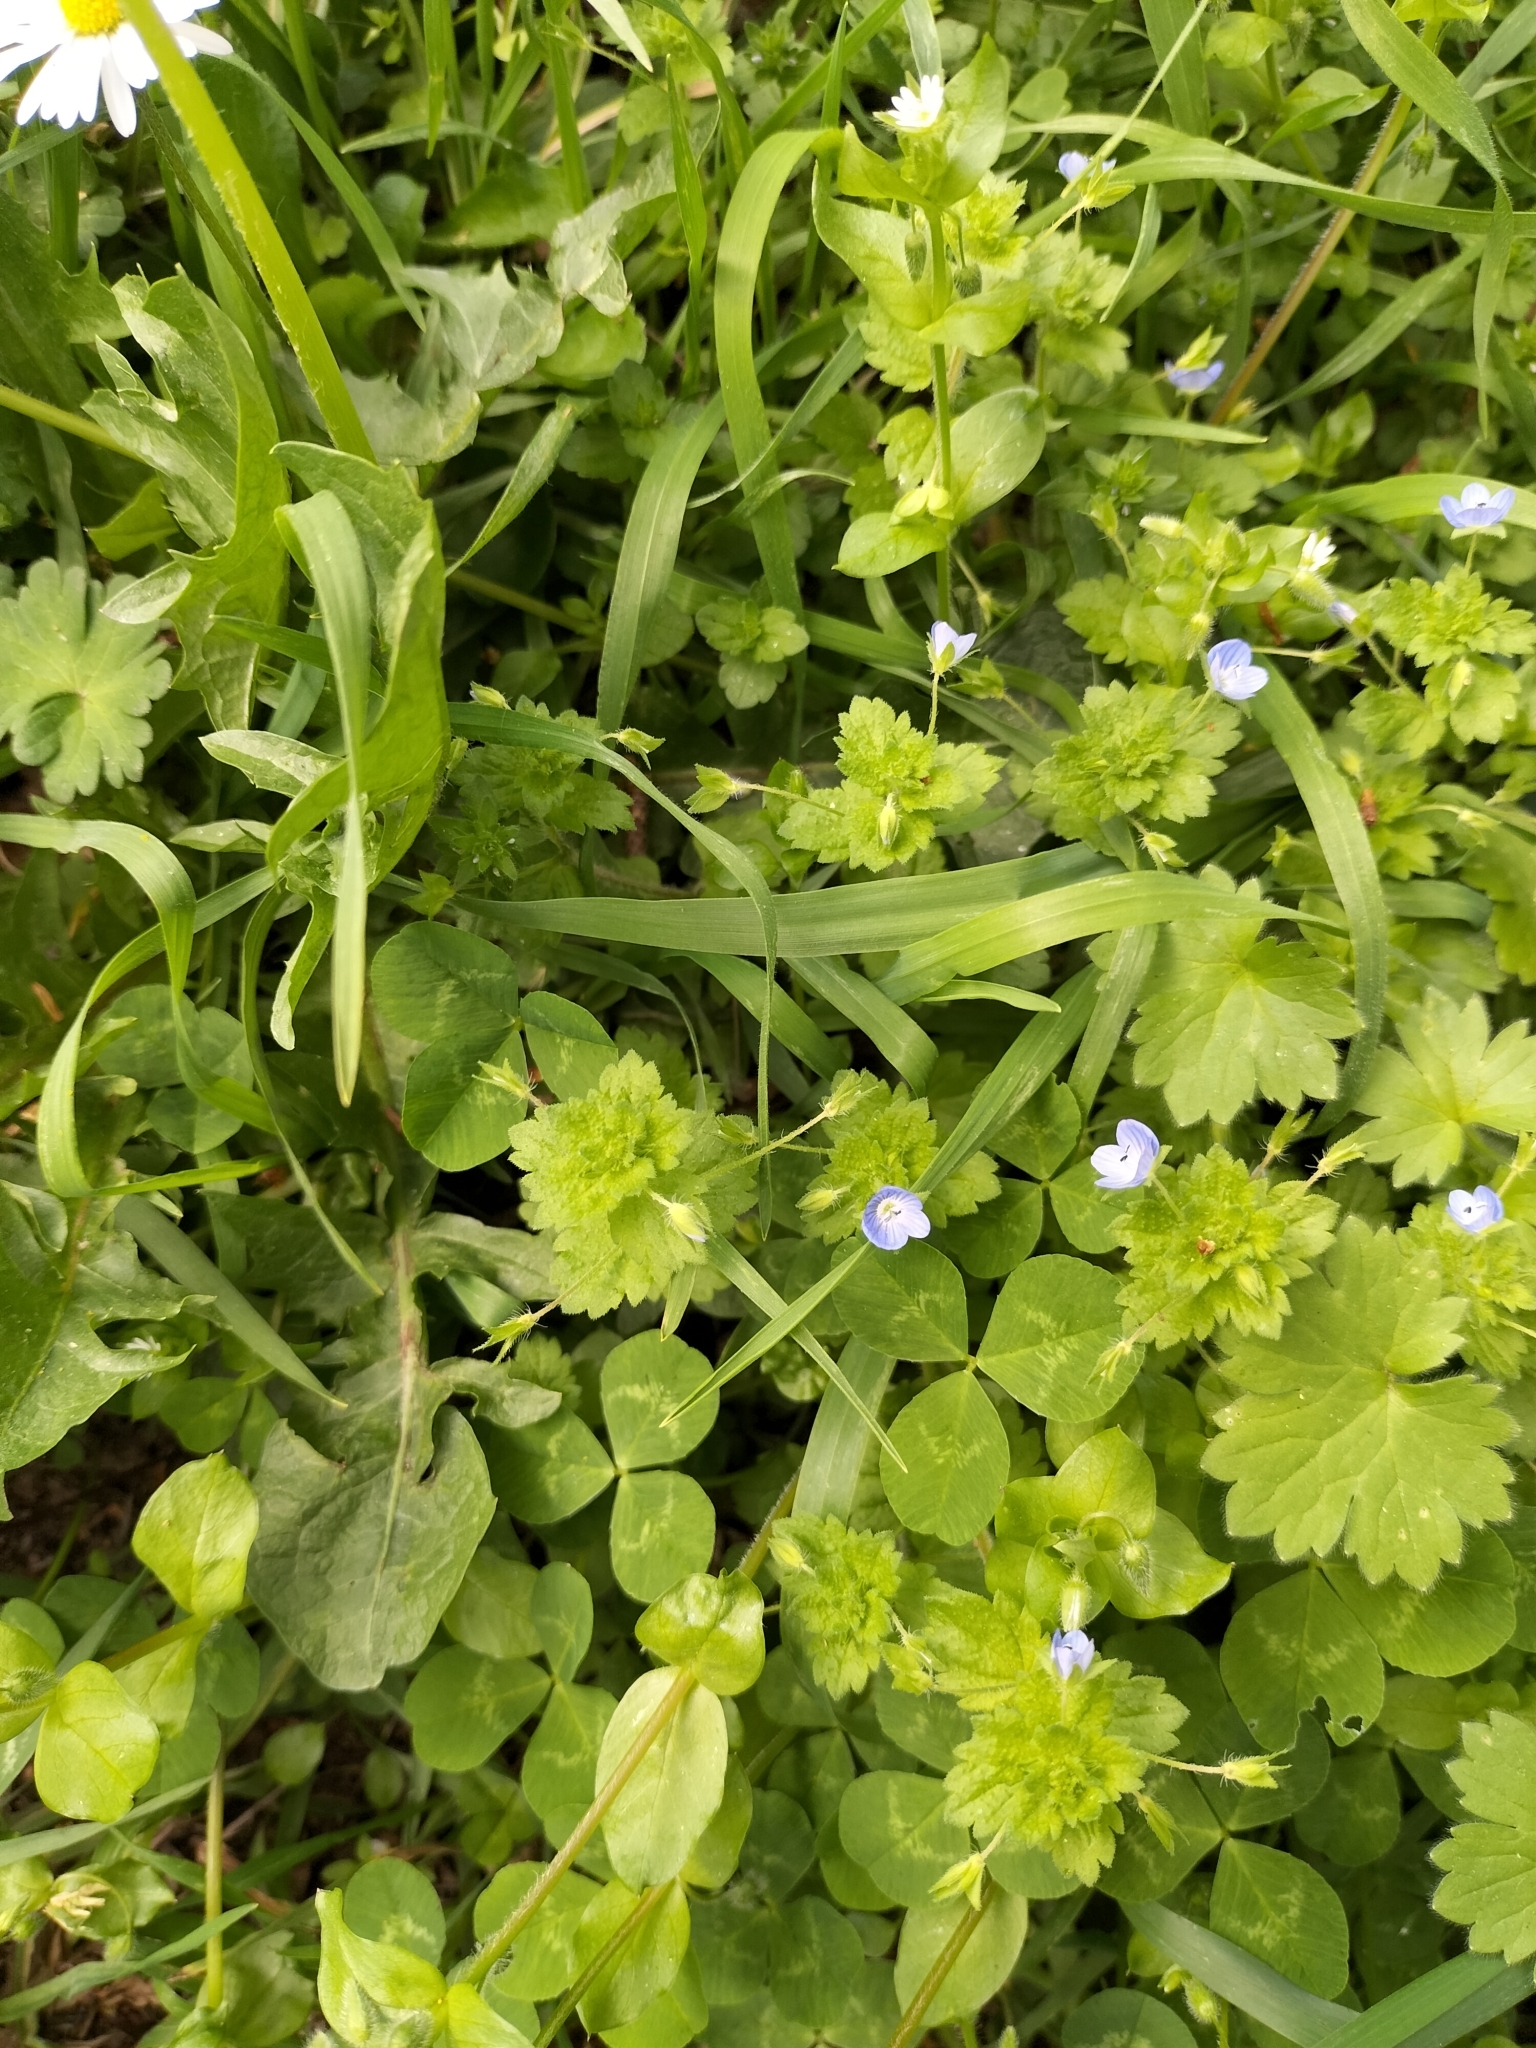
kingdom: Plantae
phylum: Tracheophyta
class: Magnoliopsida
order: Lamiales
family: Plantaginaceae
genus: Veronica
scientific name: Veronica persica
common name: Common field-speedwell
